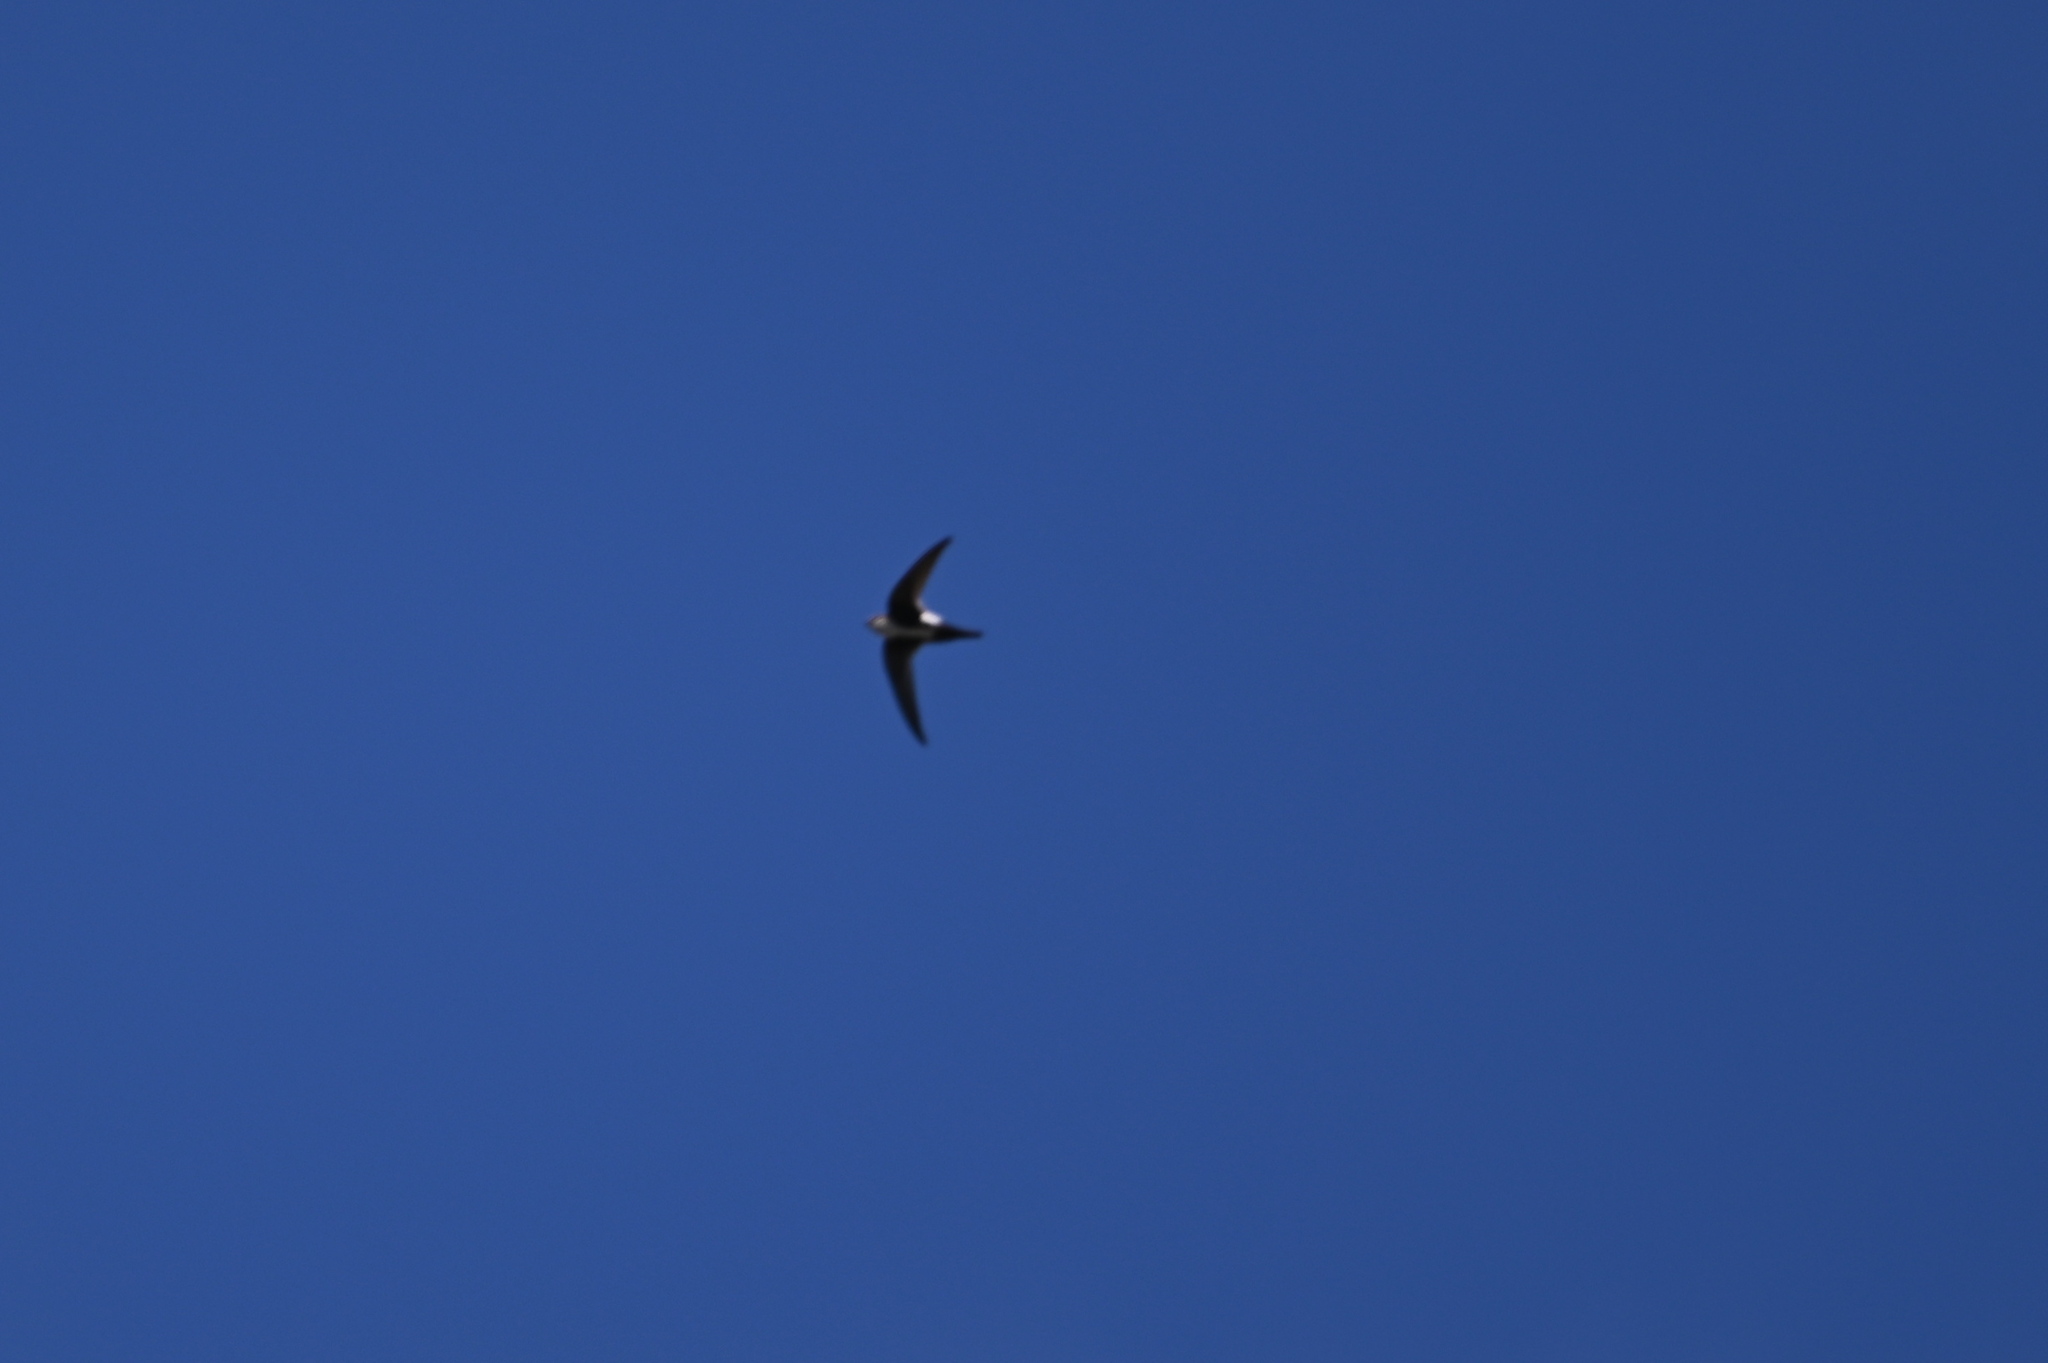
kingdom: Animalia
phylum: Chordata
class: Aves
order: Apodiformes
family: Apodidae
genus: Aeronautes
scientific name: Aeronautes saxatalis
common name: White-throated swift
